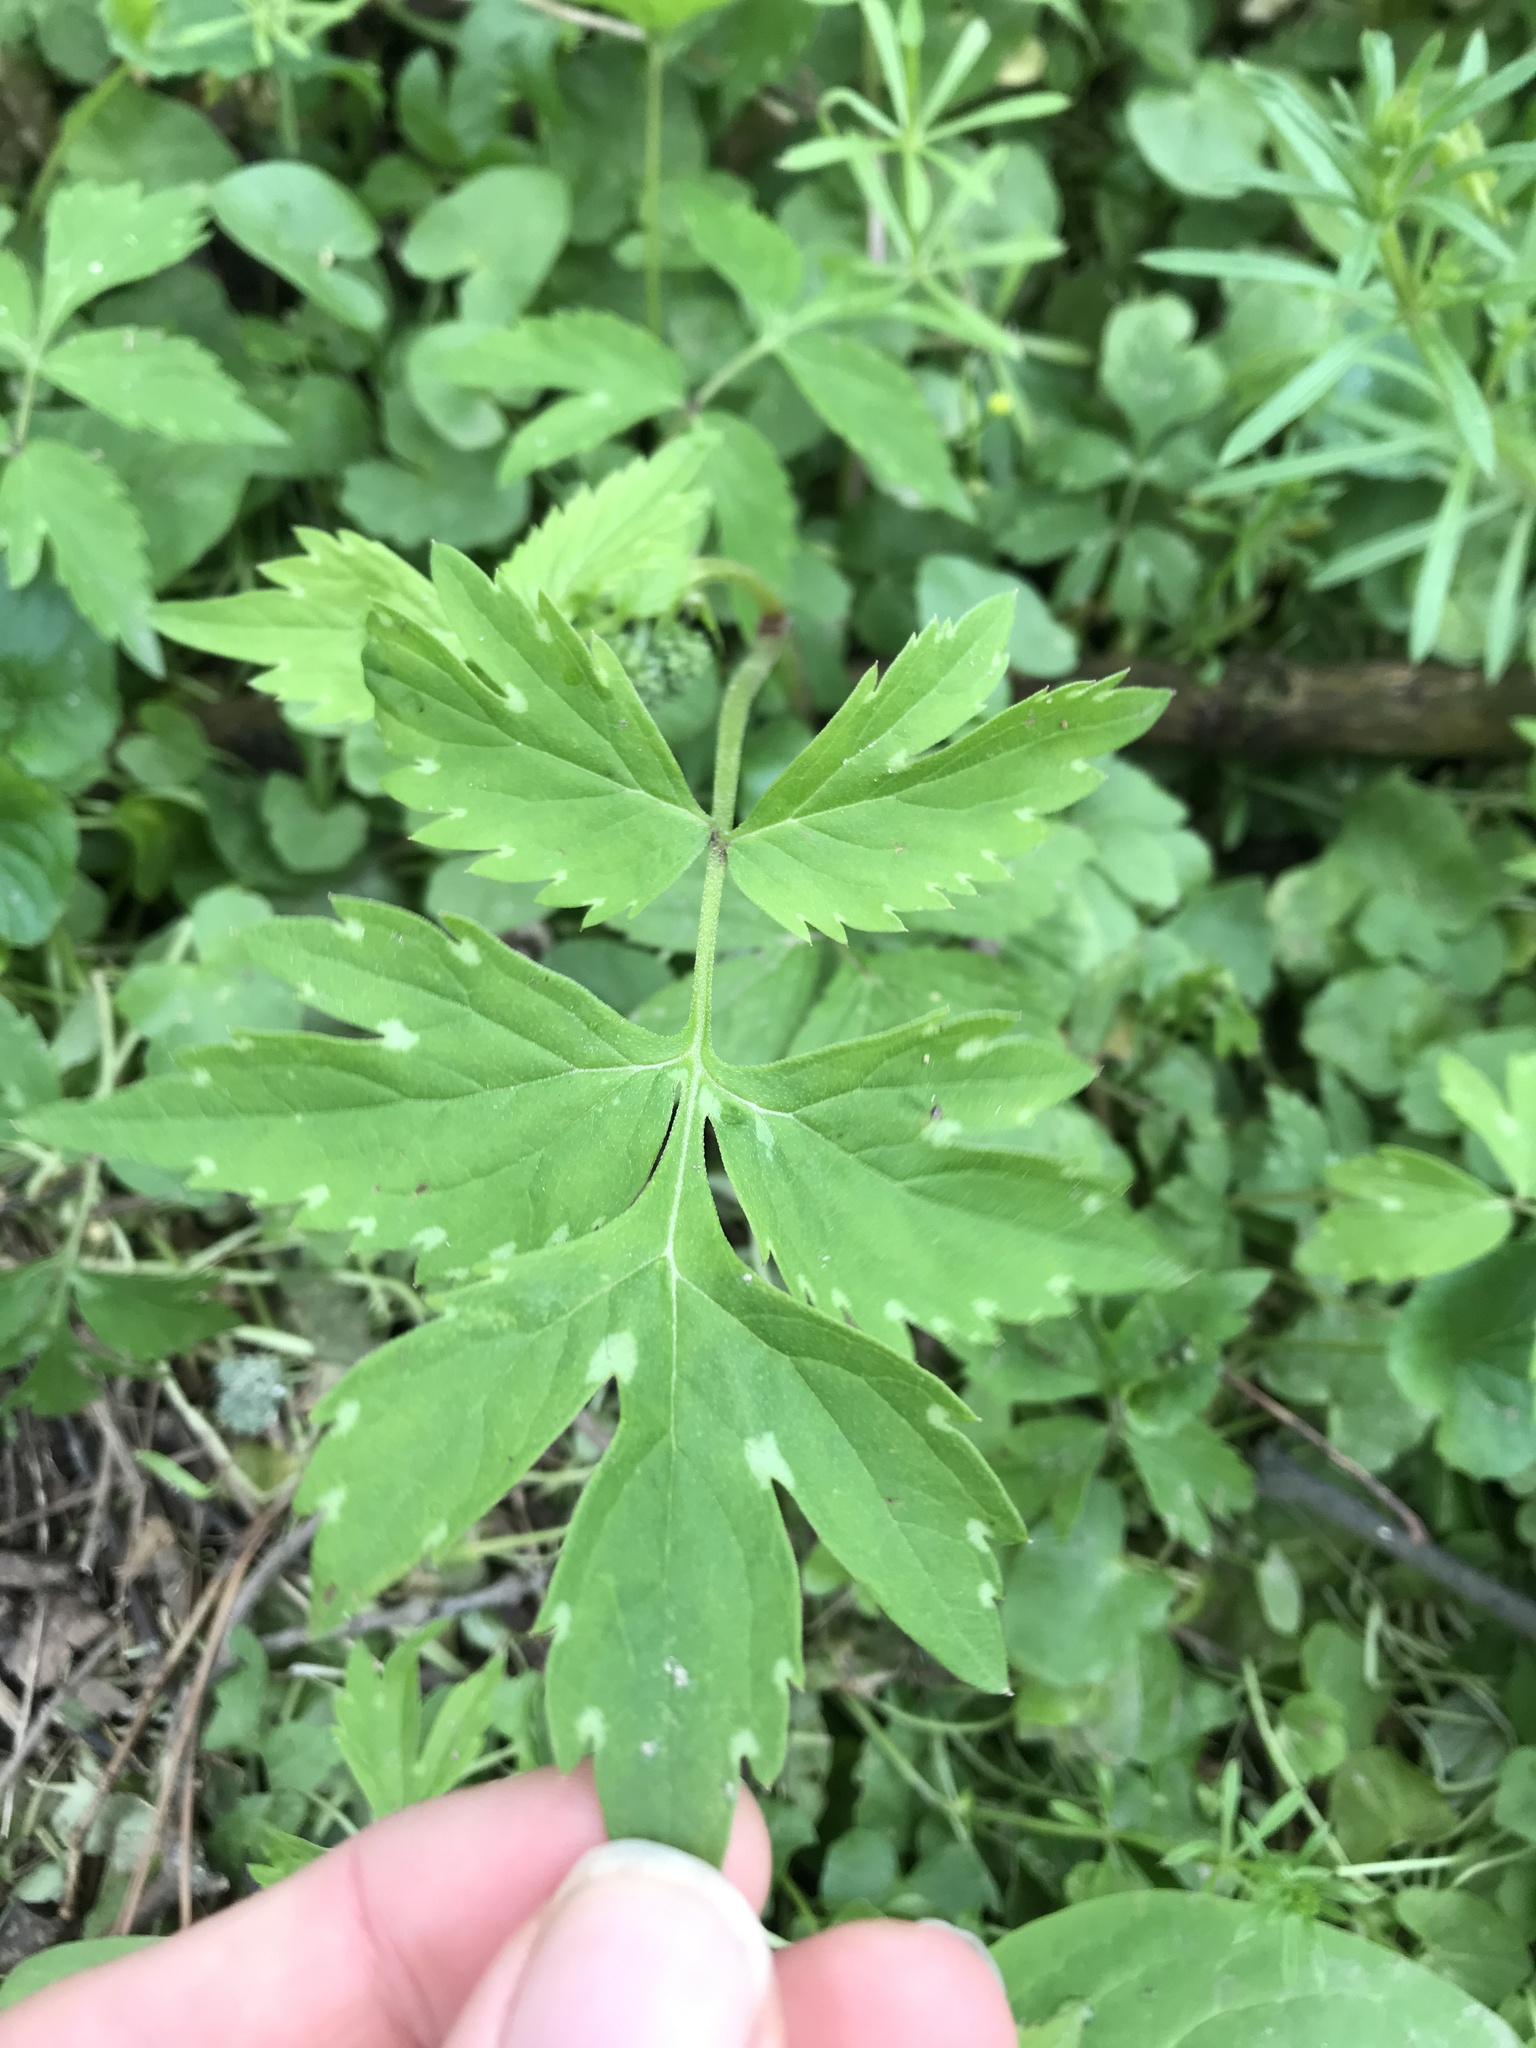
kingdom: Plantae
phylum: Tracheophyta
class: Magnoliopsida
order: Boraginales
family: Hydrophyllaceae
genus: Hydrophyllum
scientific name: Hydrophyllum virginianum
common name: Virginia waterleaf
